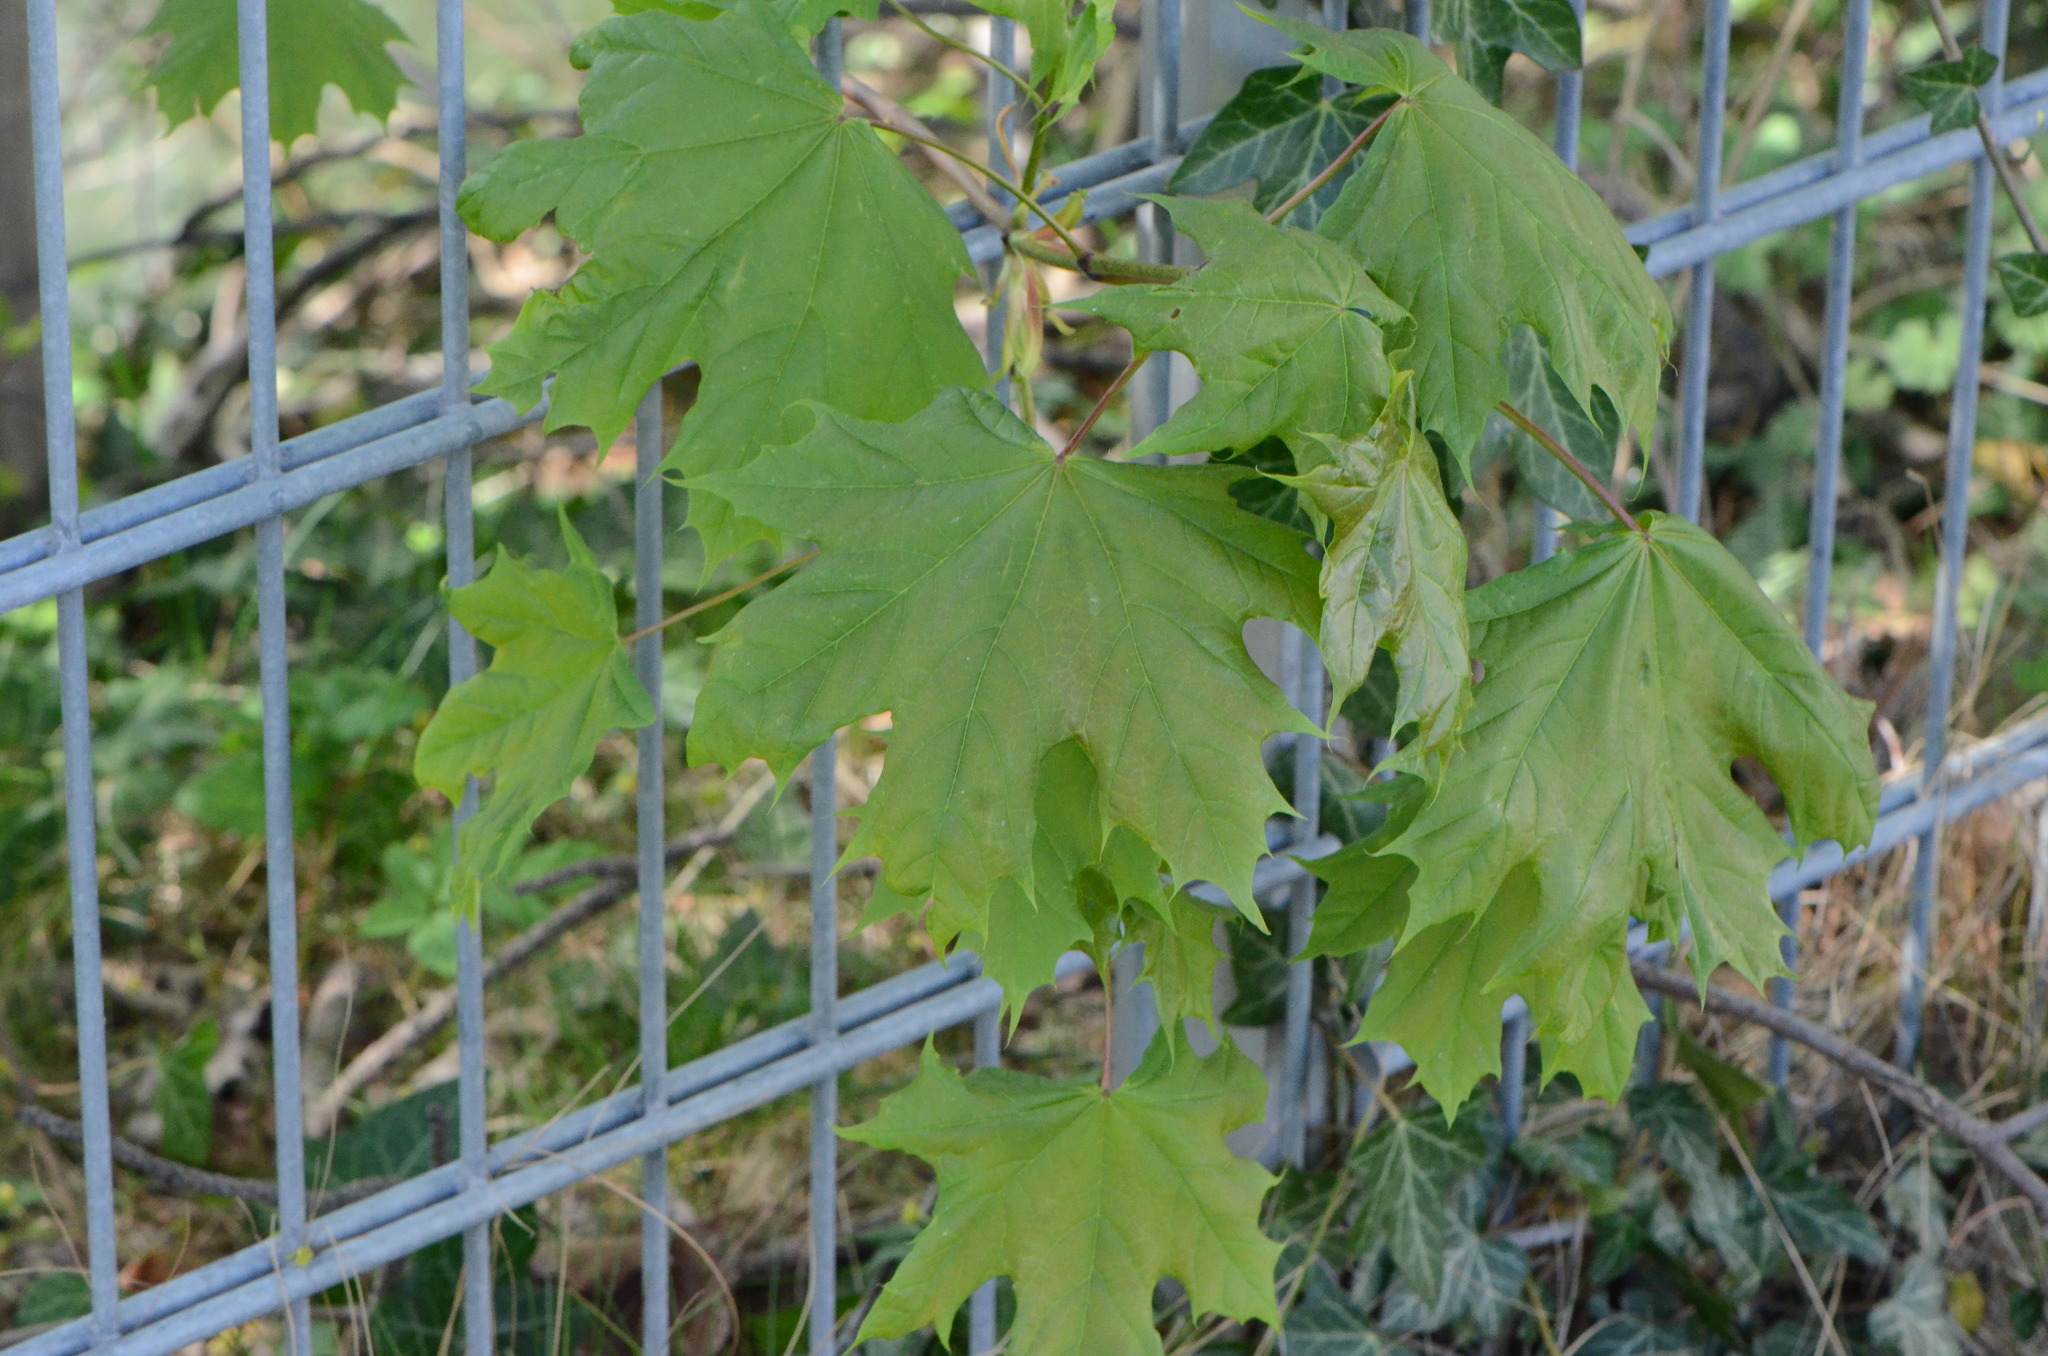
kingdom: Plantae
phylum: Tracheophyta
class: Magnoliopsida
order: Sapindales
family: Sapindaceae
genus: Acer
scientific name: Acer platanoides
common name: Norway maple
